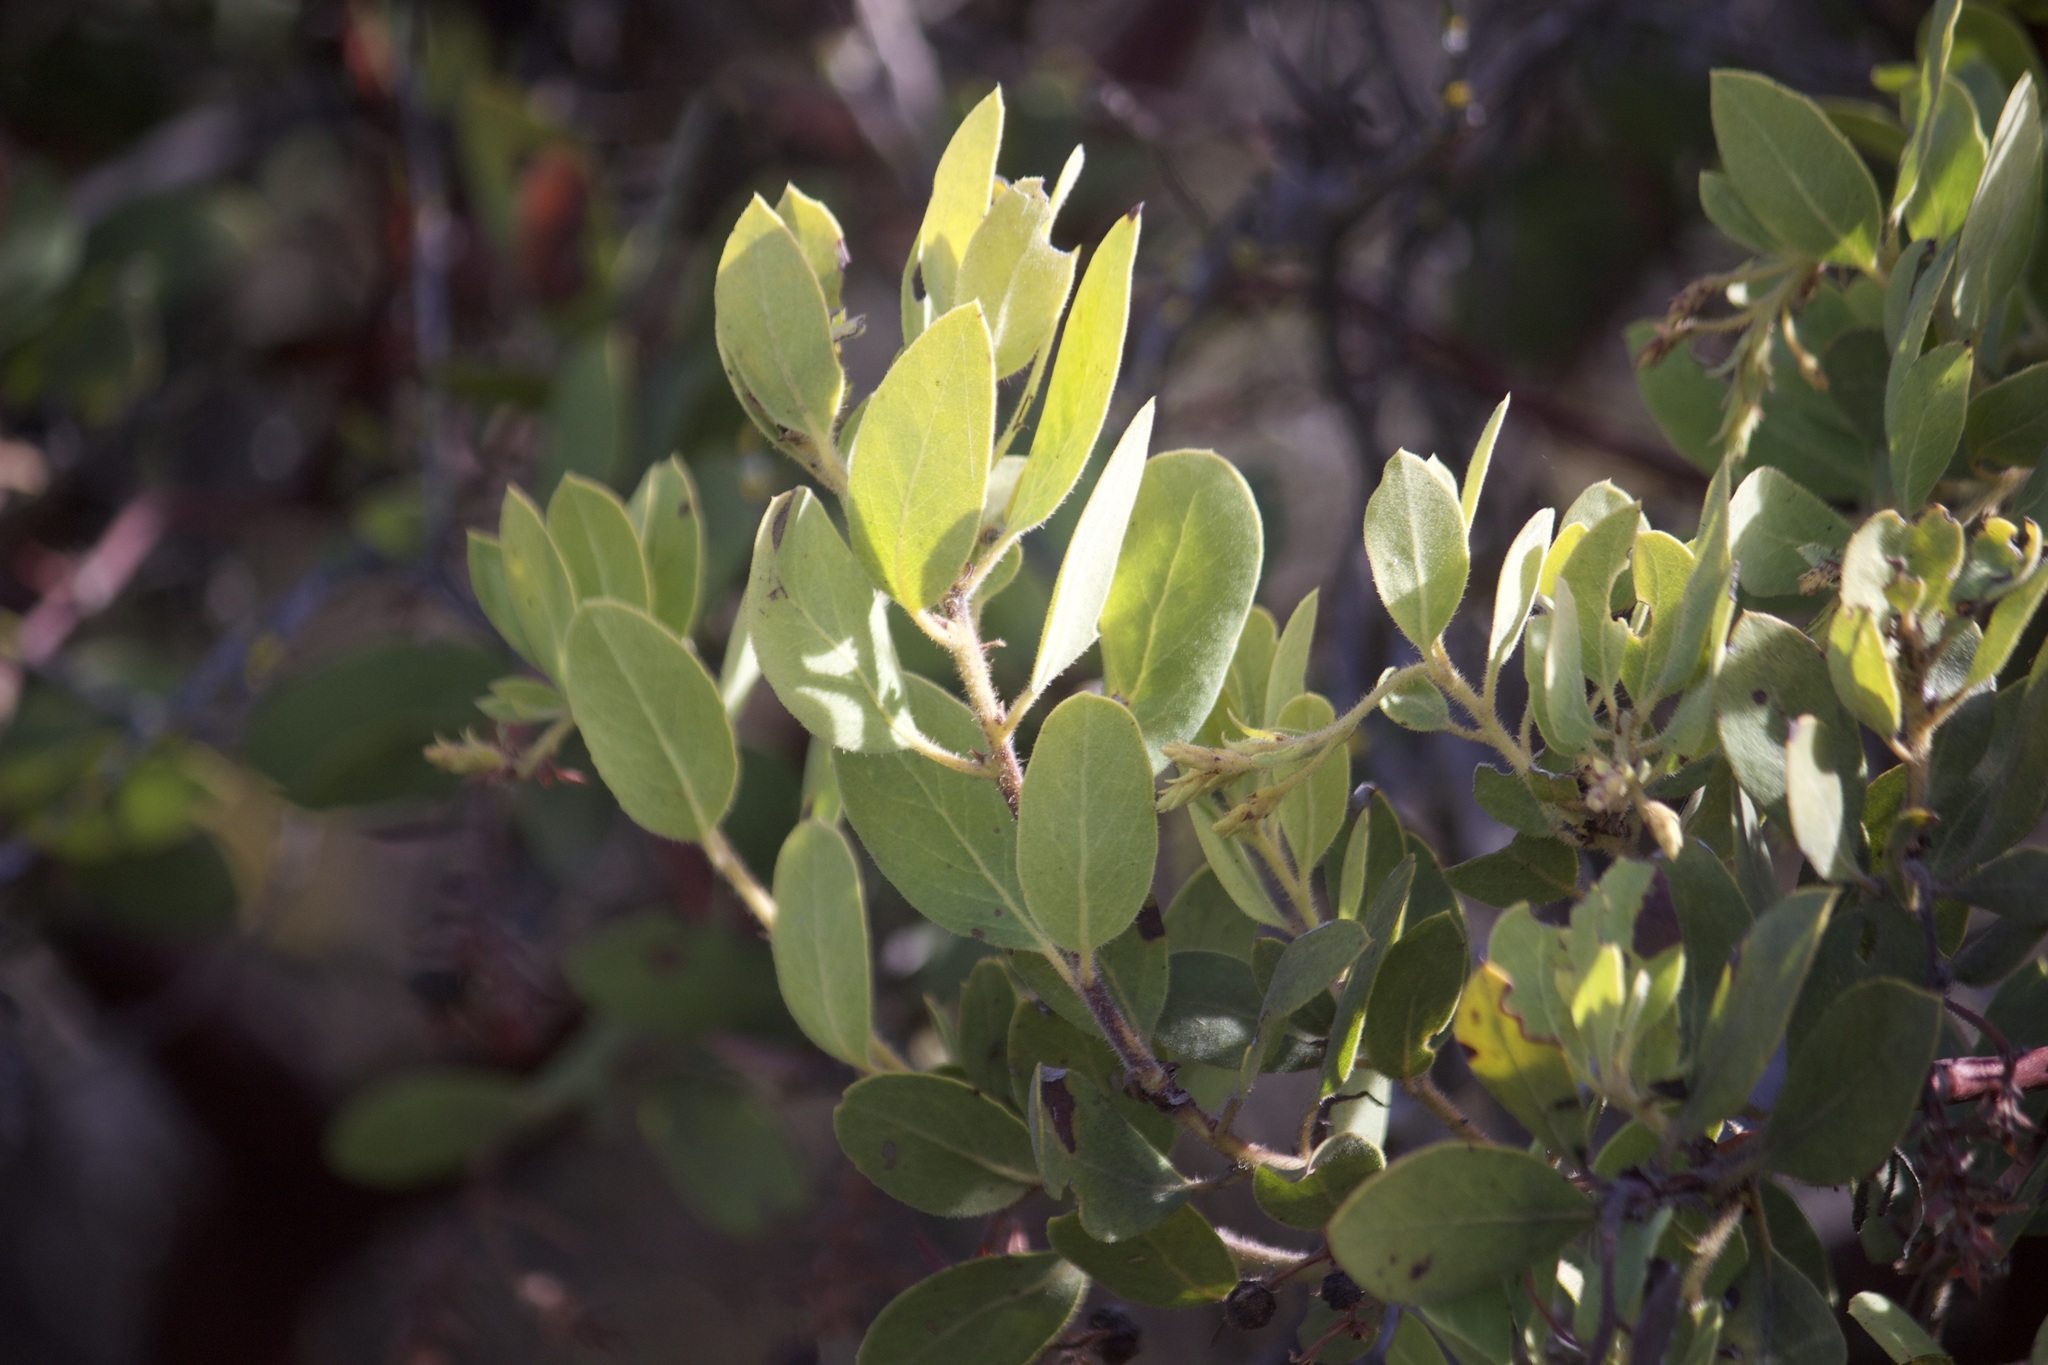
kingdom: Plantae
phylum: Tracheophyta
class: Magnoliopsida
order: Ericales
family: Ericaceae
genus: Arctostaphylos
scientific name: Arctostaphylos glandulosa
